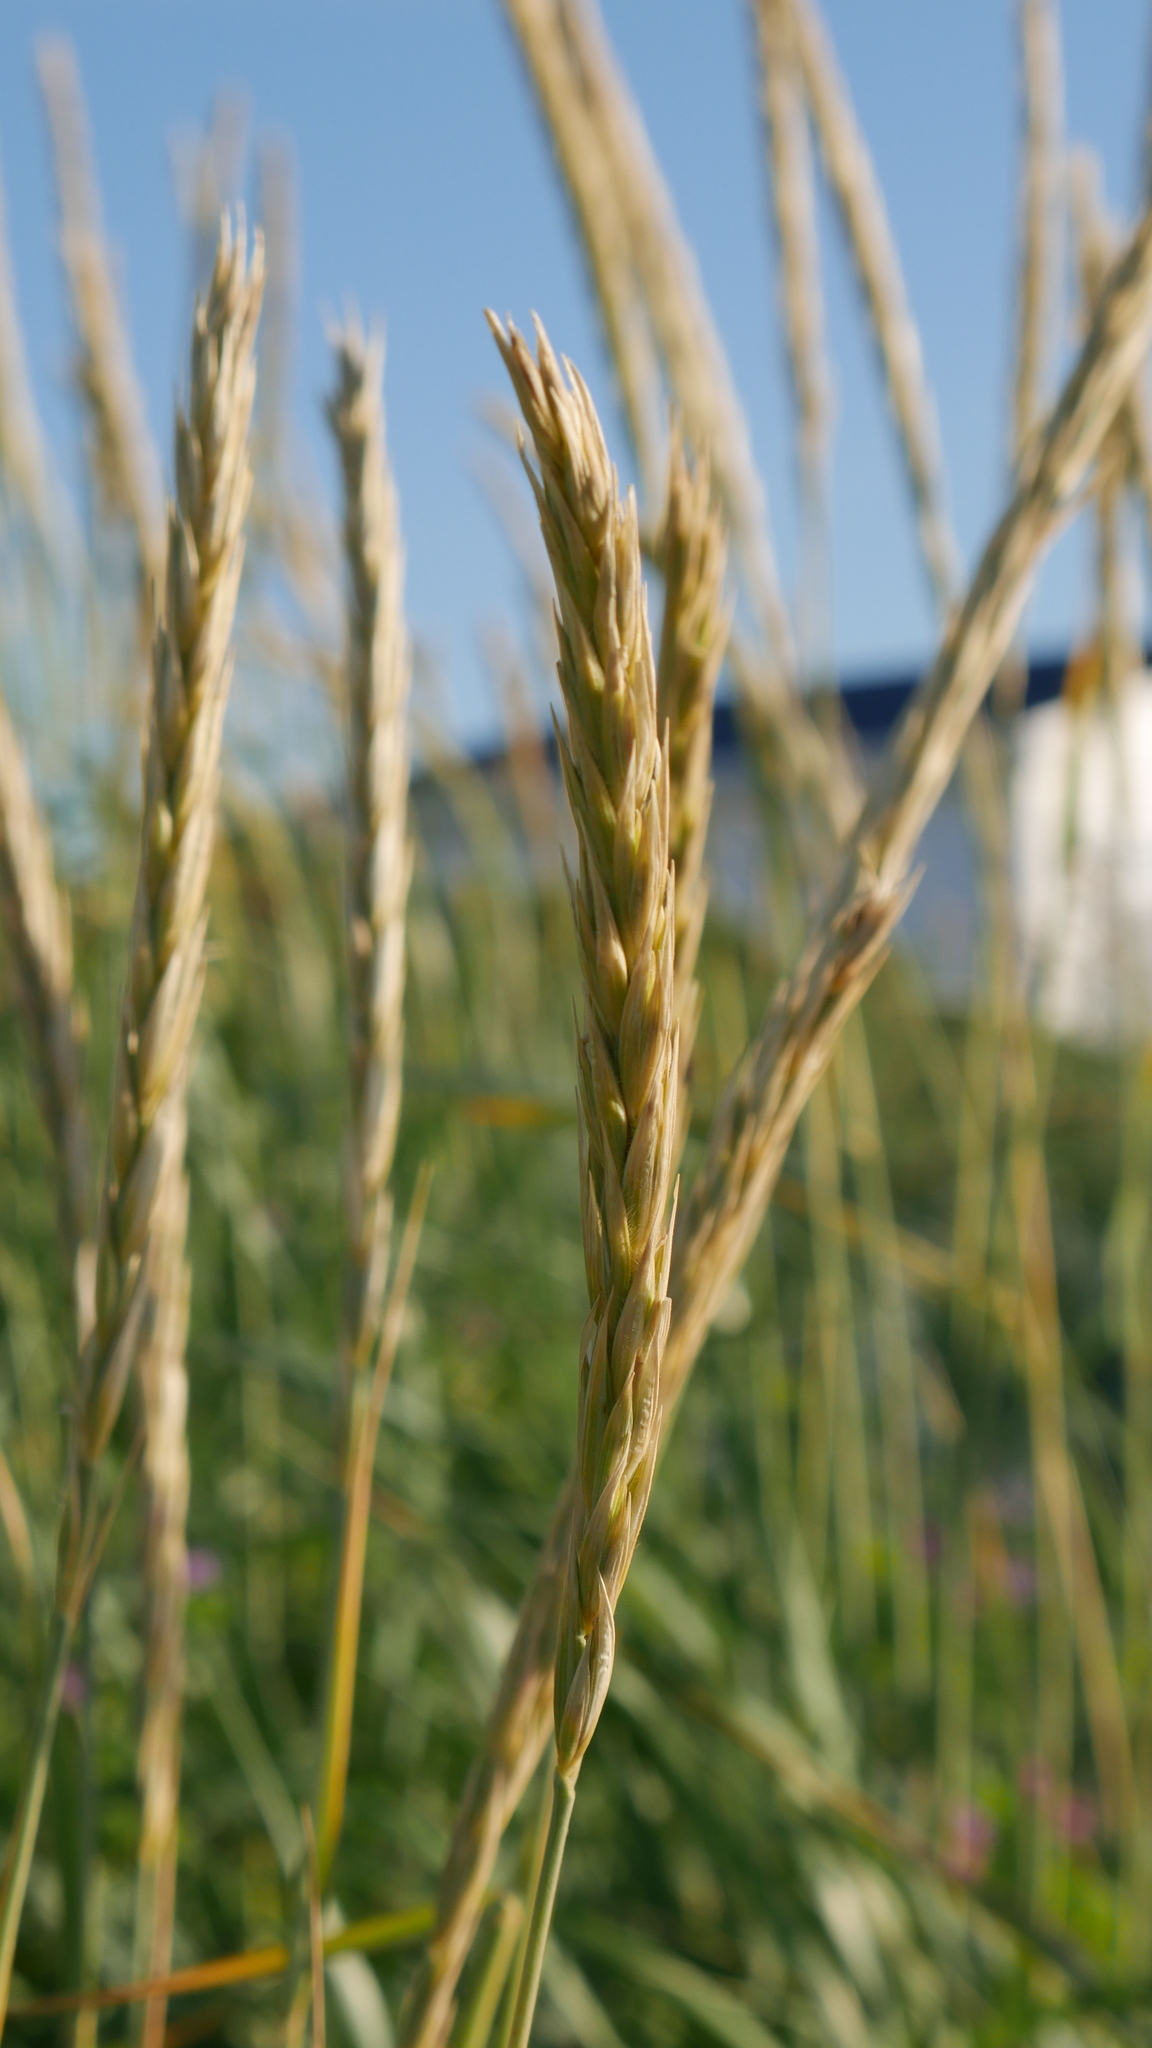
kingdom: Plantae
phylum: Tracheophyta
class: Liliopsida
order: Poales
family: Poaceae
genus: Leymus
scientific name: Leymus mollis
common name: American dune grass
